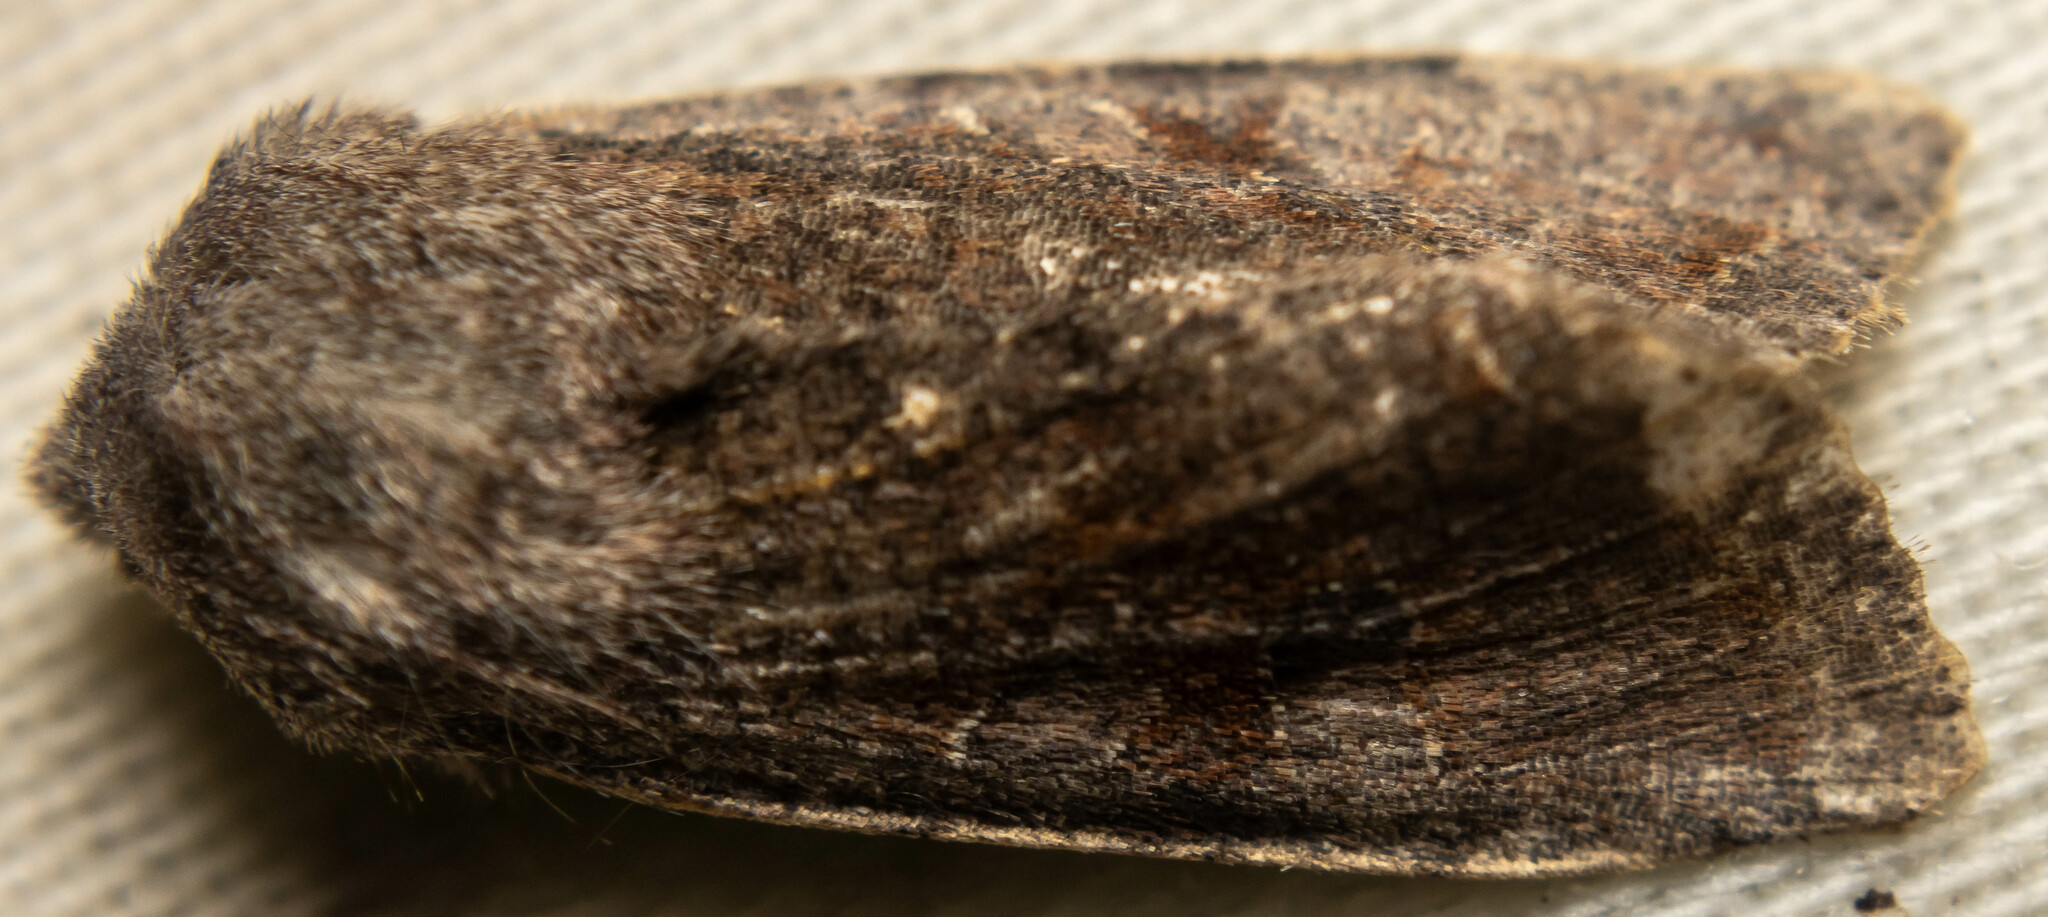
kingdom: Animalia
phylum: Arthropoda
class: Insecta
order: Lepidoptera
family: Noctuidae
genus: Orthosia
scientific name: Orthosia incerta
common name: Clouded drab
